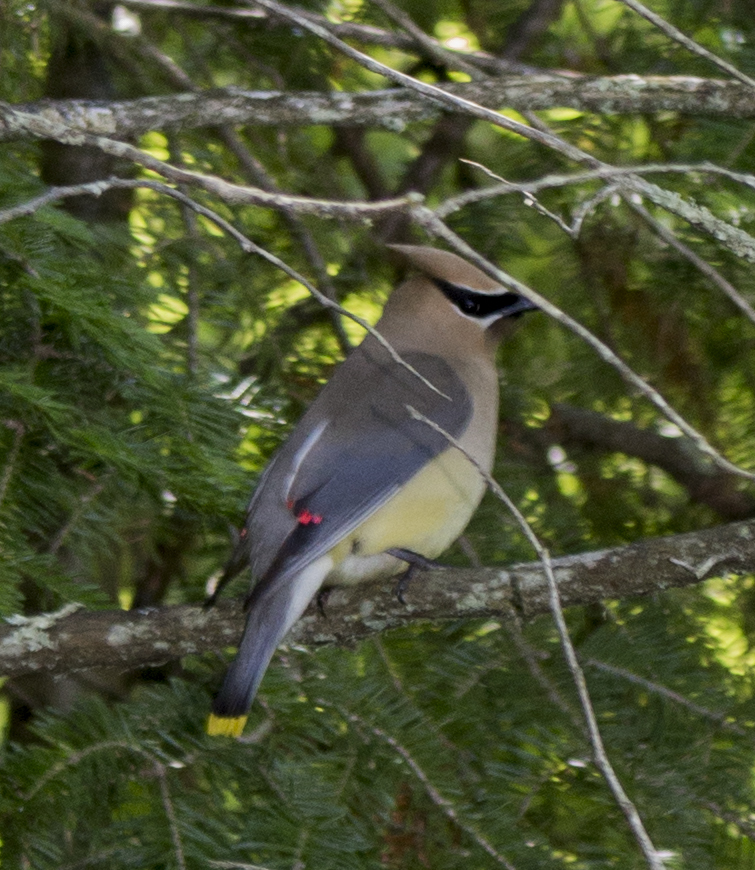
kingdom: Animalia
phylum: Chordata
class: Aves
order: Passeriformes
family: Bombycillidae
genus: Bombycilla
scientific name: Bombycilla cedrorum
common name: Cedar waxwing
